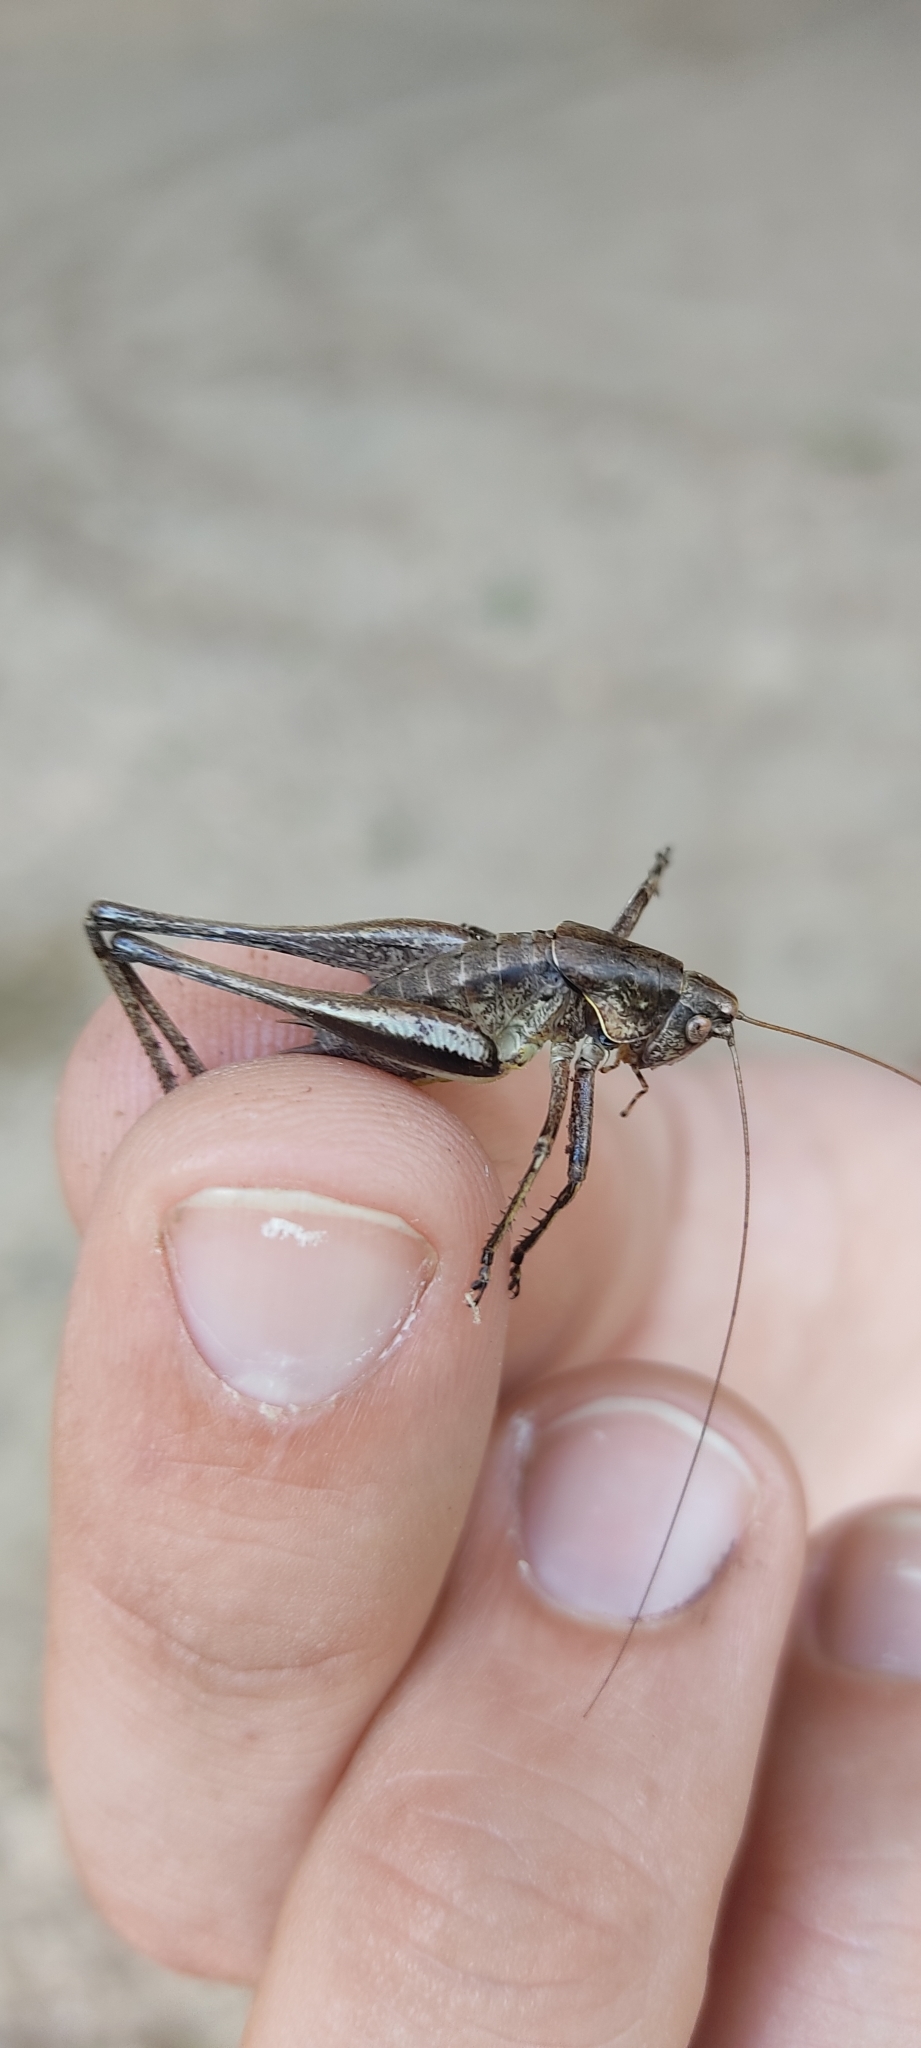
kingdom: Animalia
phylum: Arthropoda
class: Insecta
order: Orthoptera
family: Tettigoniidae
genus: Rhacocleis
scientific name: Rhacocleis poneli
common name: Ponel's bush-cricket
